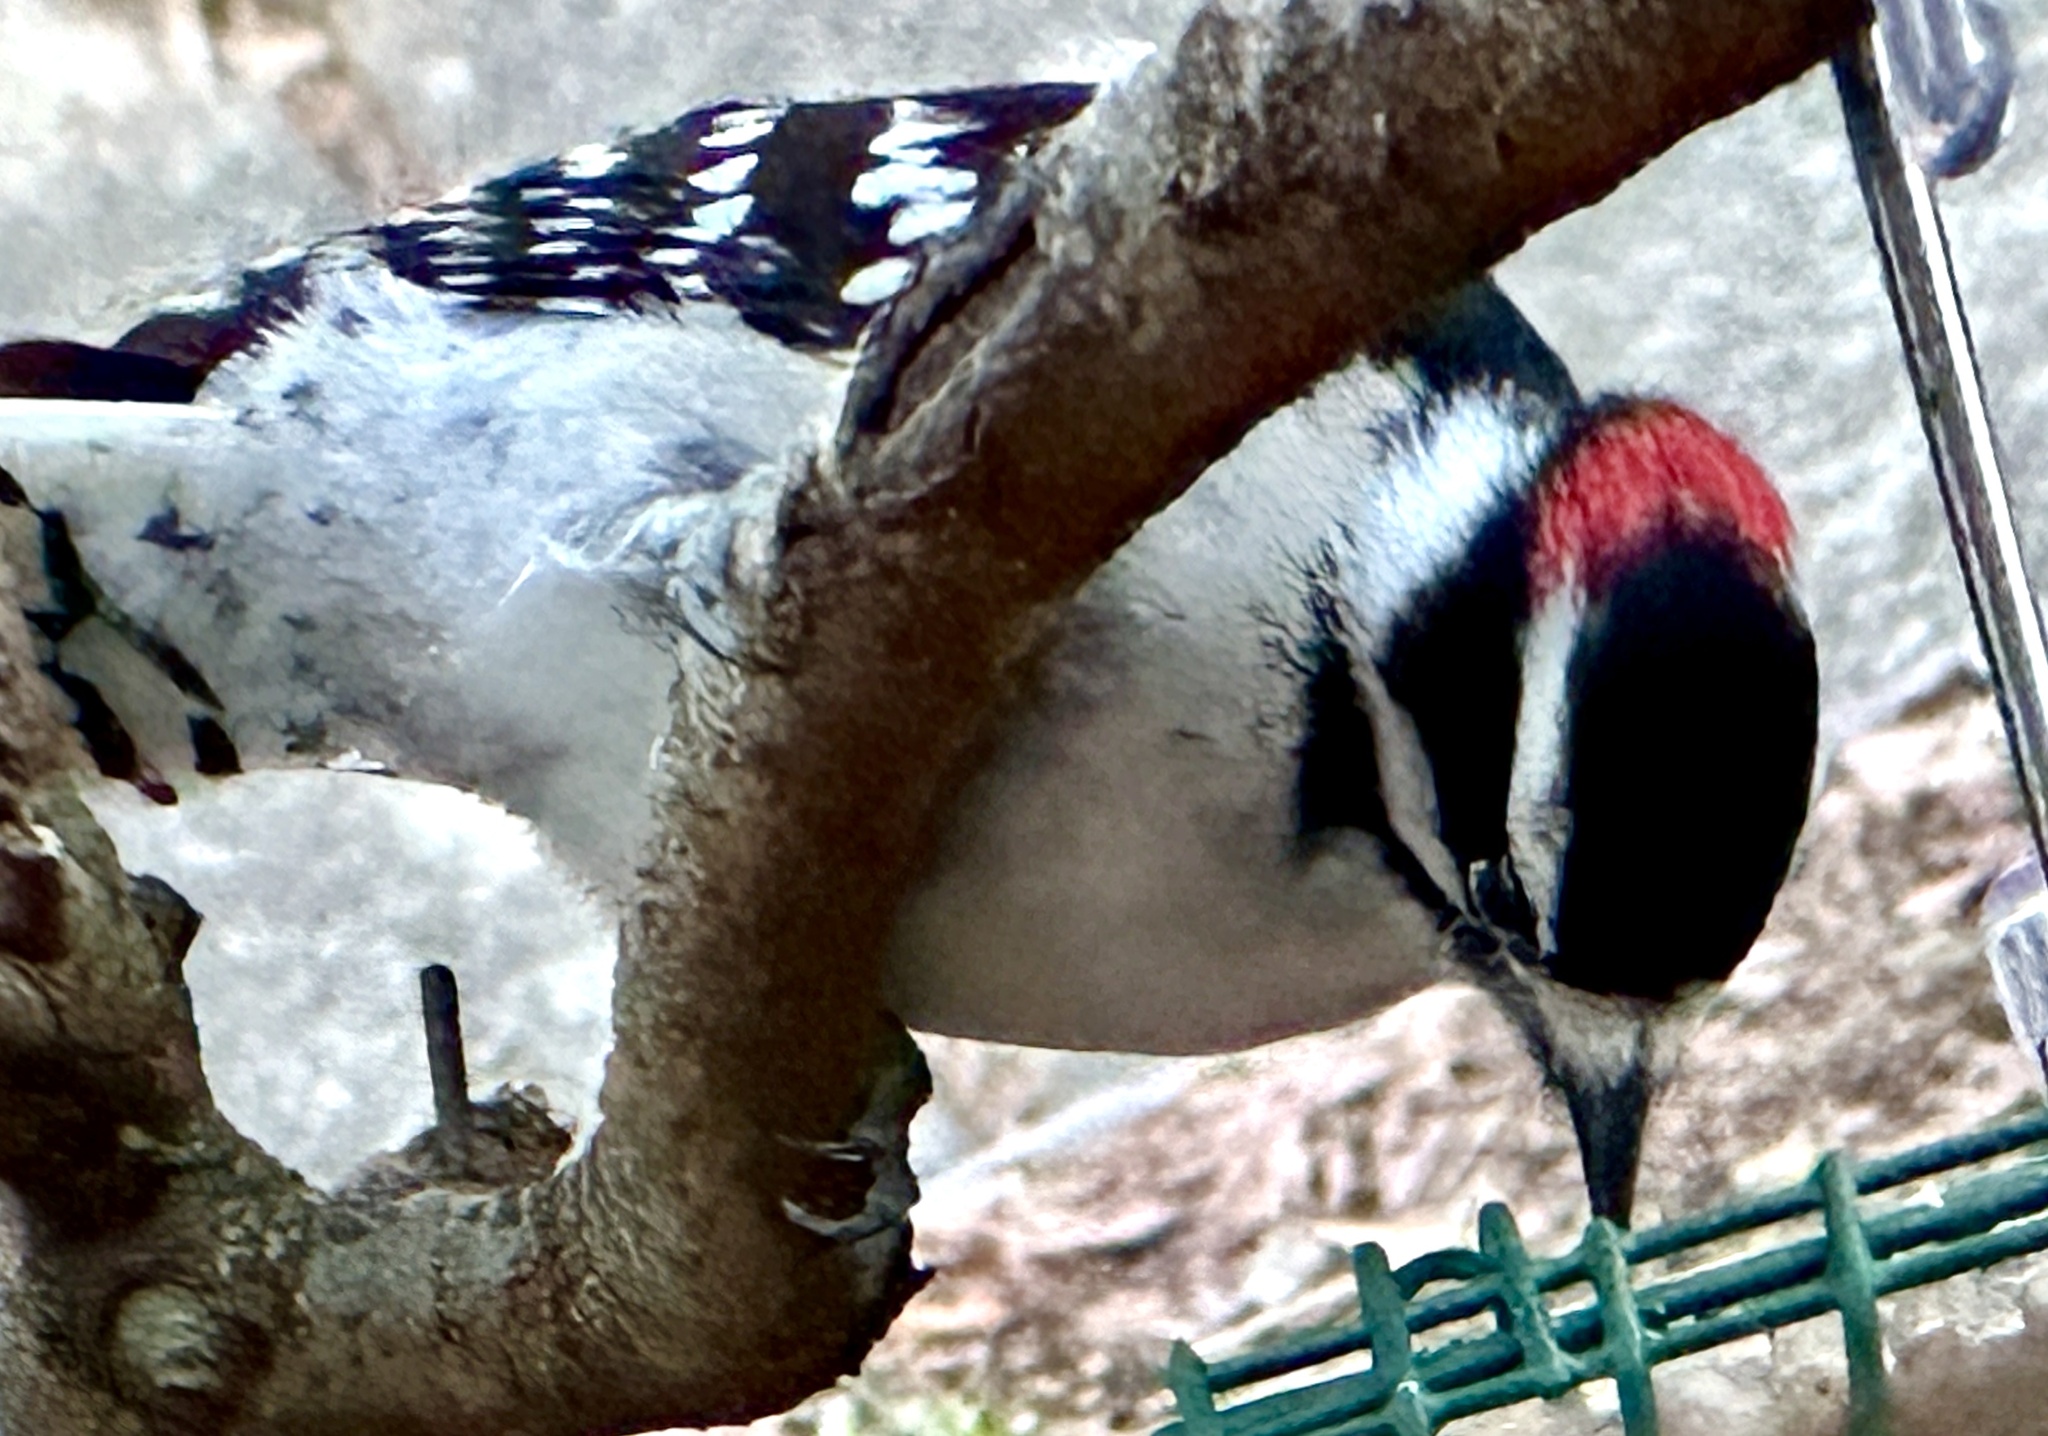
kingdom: Animalia
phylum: Chordata
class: Aves
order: Piciformes
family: Picidae
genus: Dryobates
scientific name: Dryobates pubescens
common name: Downy woodpecker
